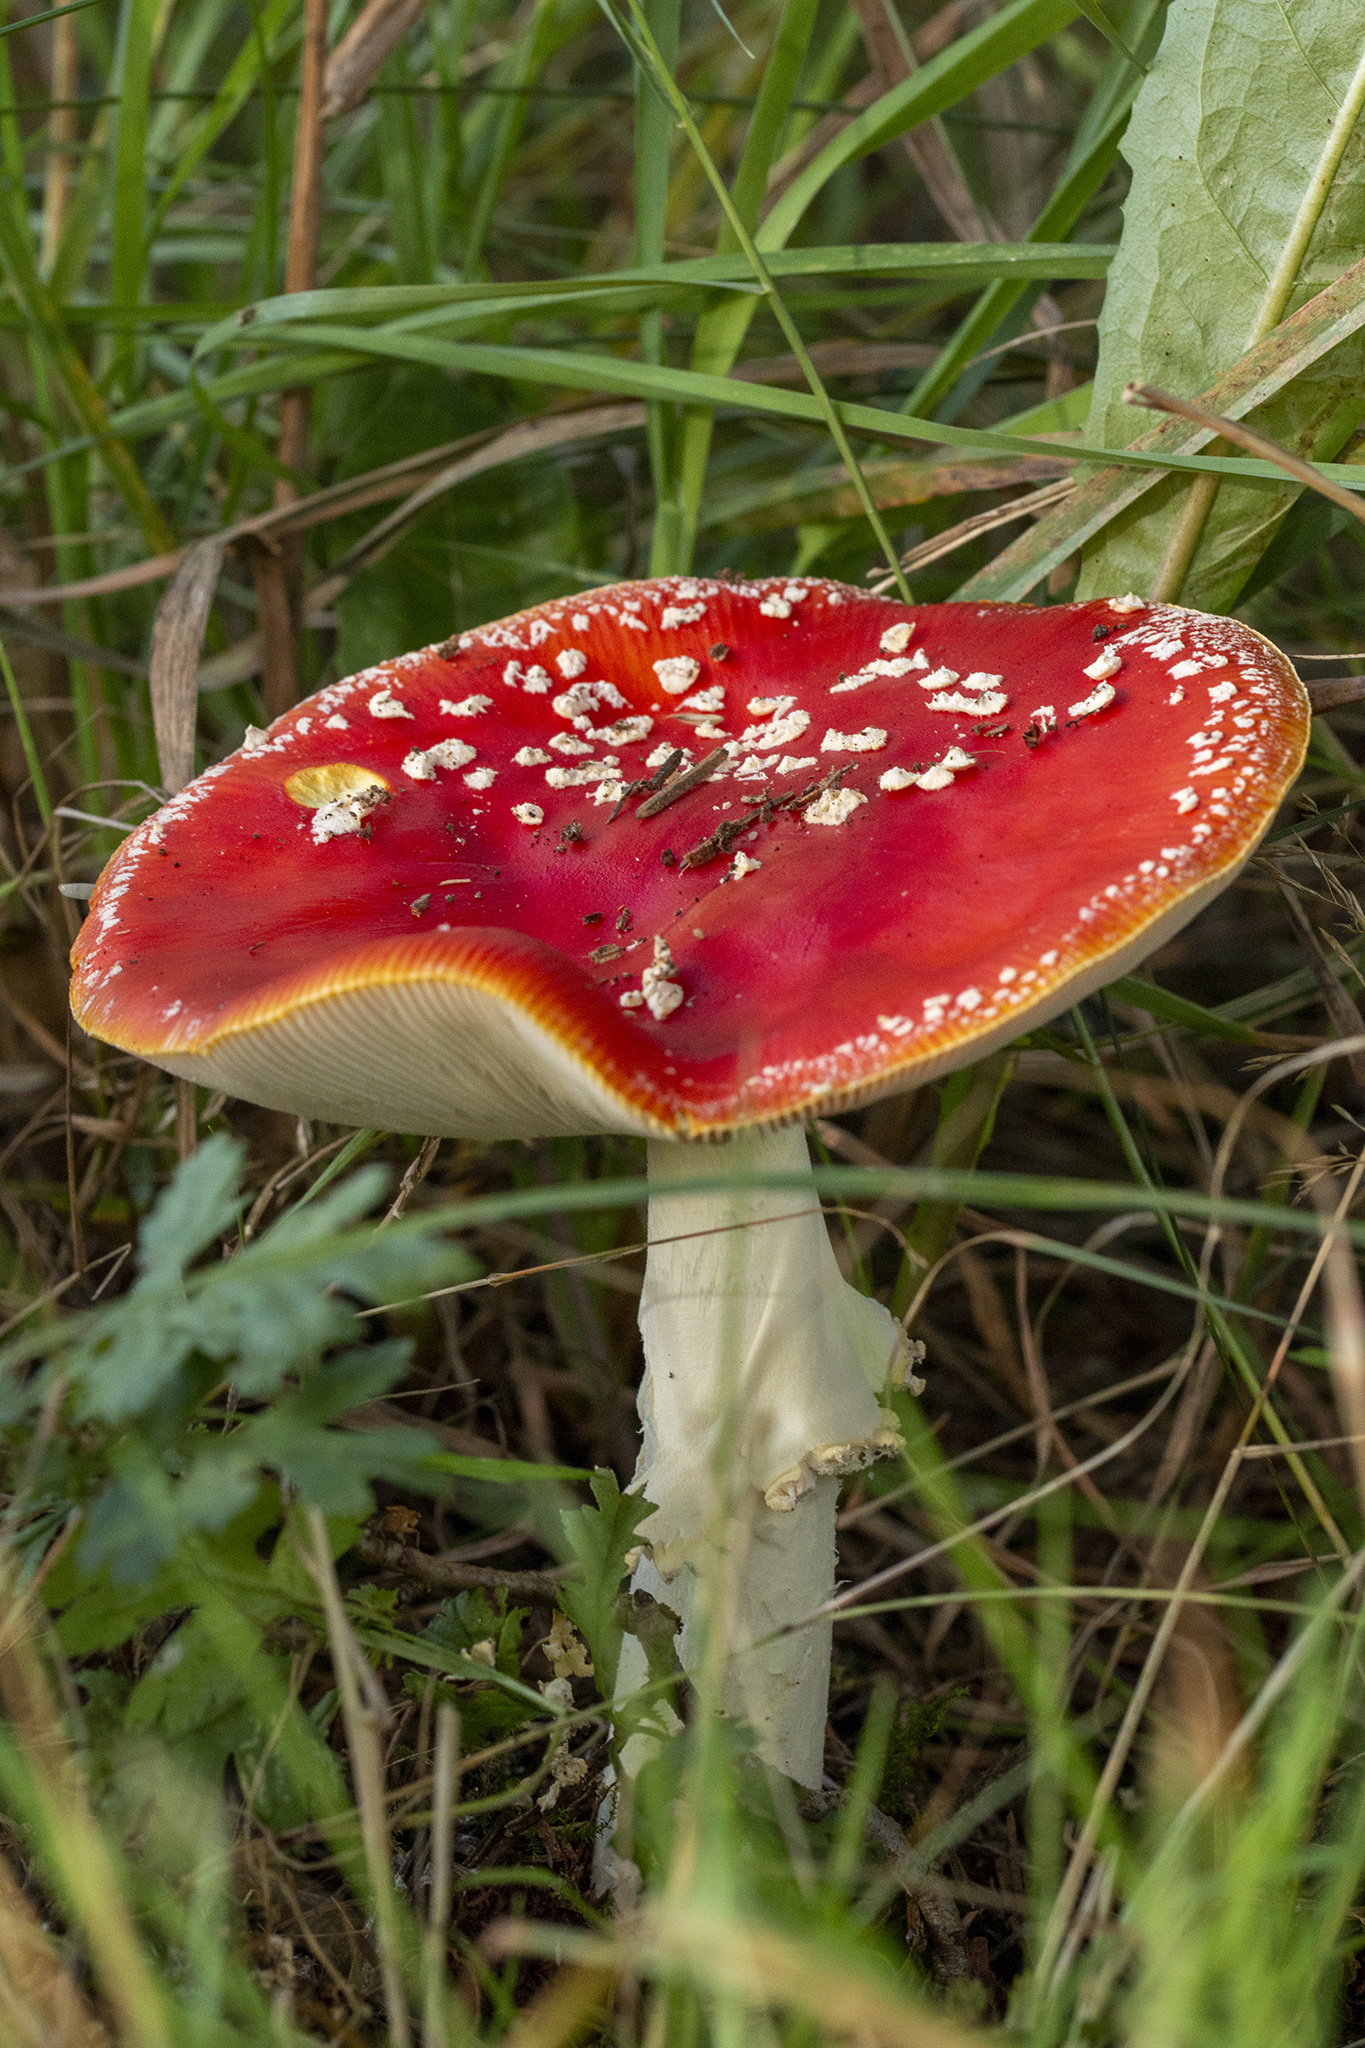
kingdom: Fungi
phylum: Basidiomycota
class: Agaricomycetes
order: Agaricales
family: Amanitaceae
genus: Amanita
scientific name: Amanita muscaria
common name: Fly agaric
